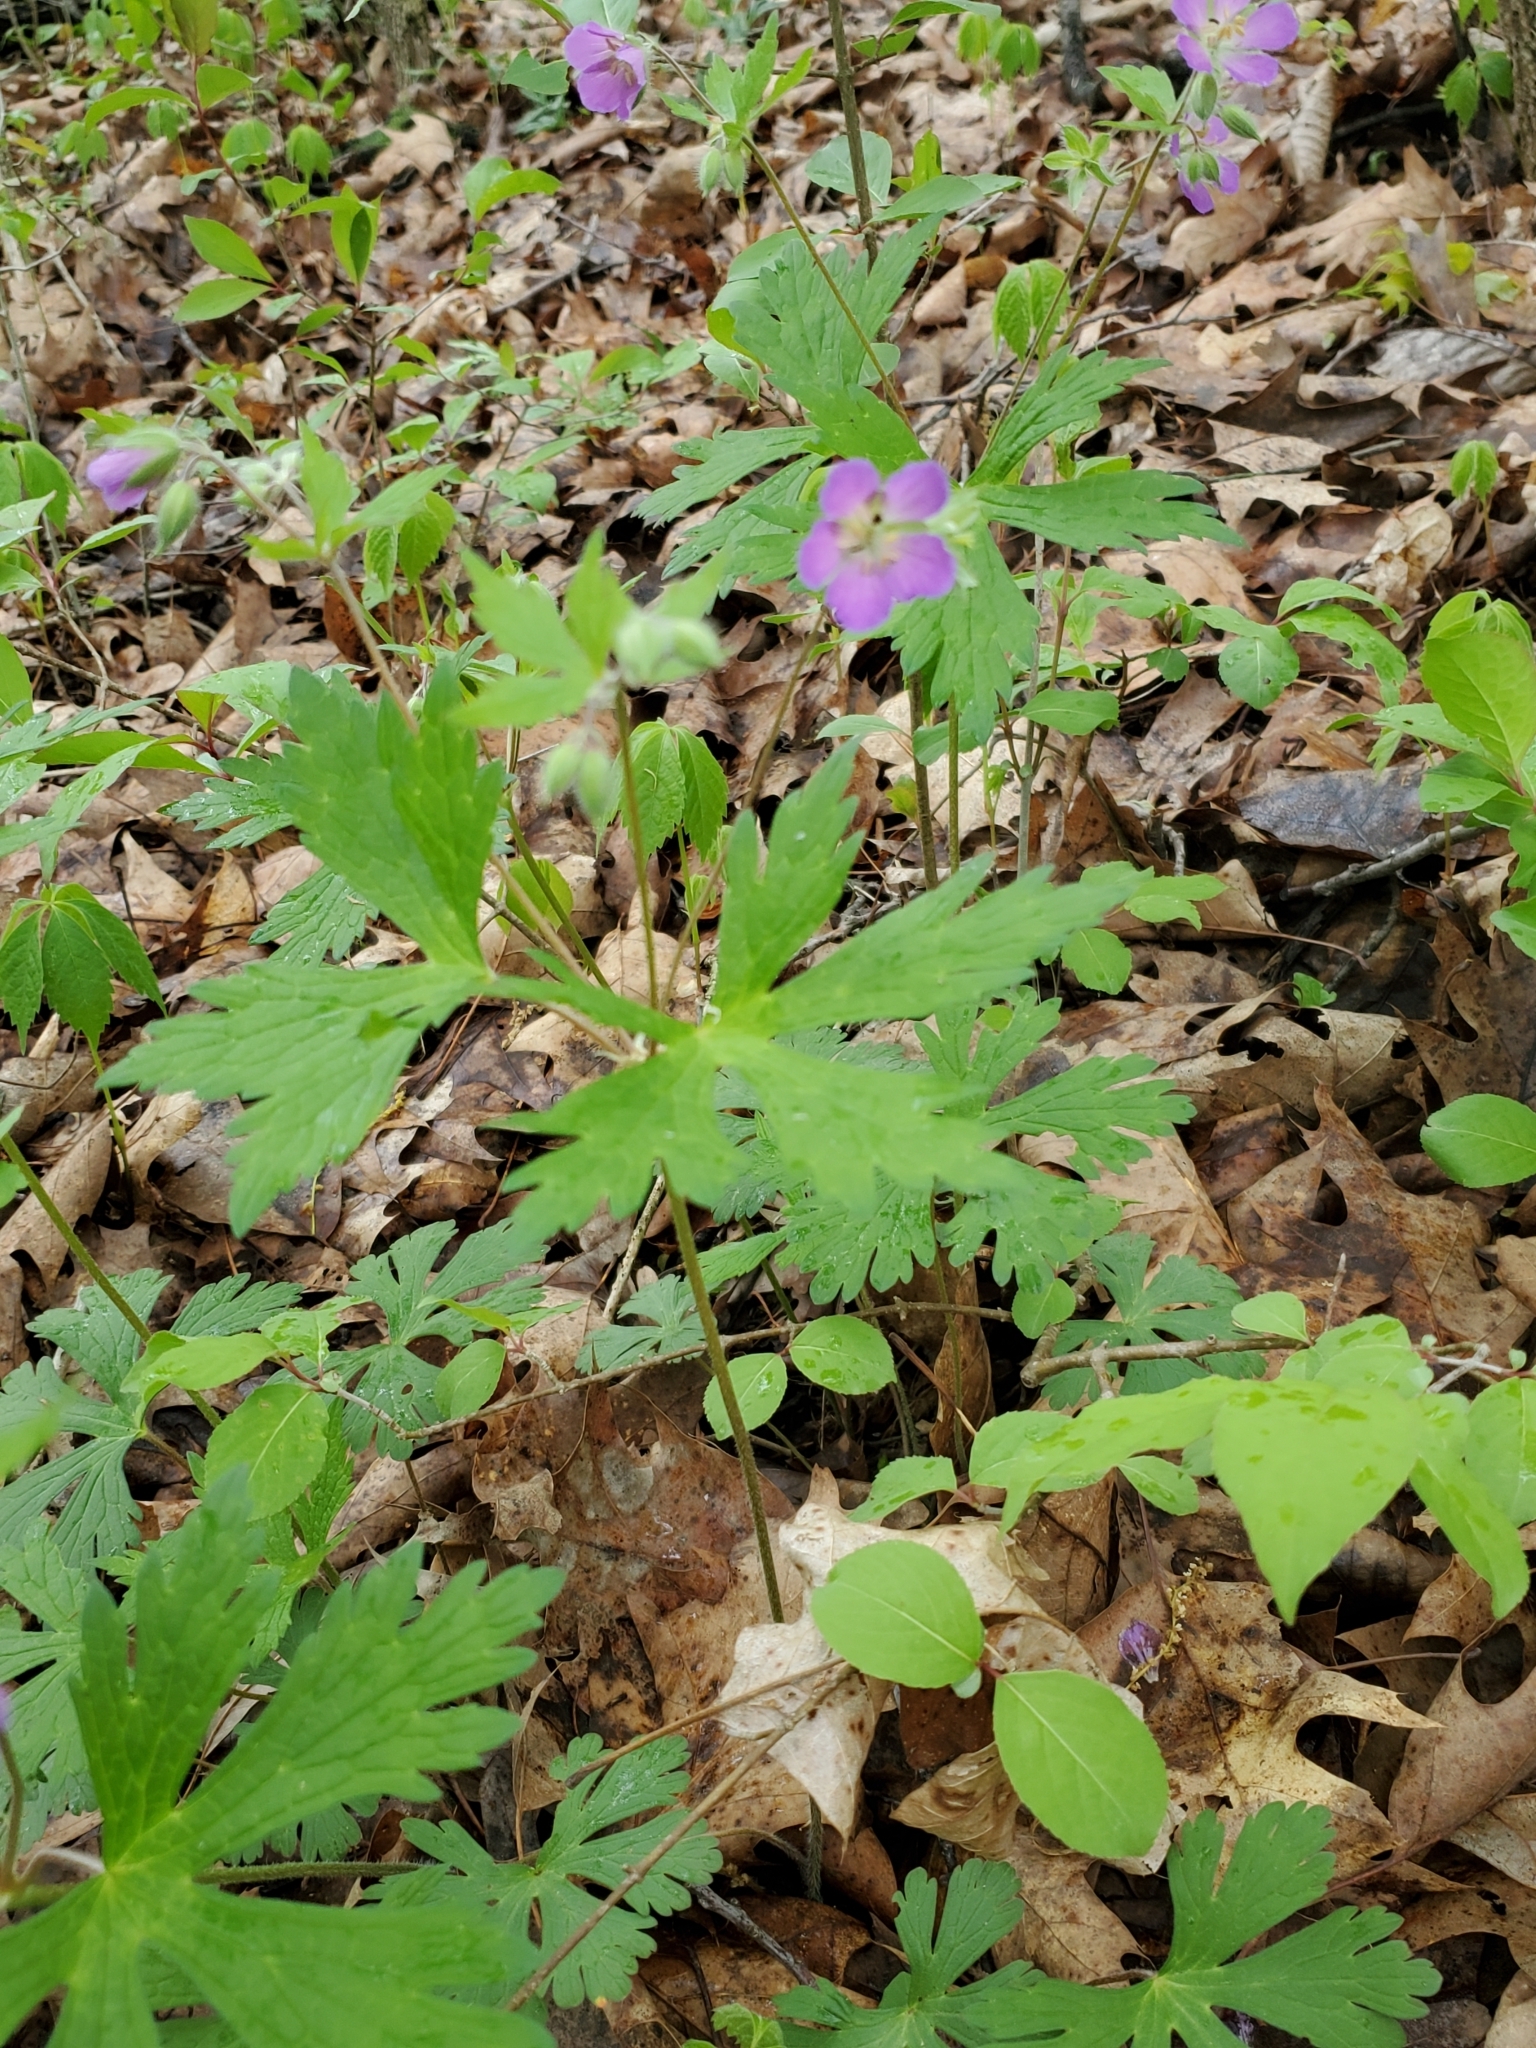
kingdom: Plantae
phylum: Tracheophyta
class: Magnoliopsida
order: Geraniales
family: Geraniaceae
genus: Geranium
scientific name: Geranium maculatum
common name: Spotted geranium
